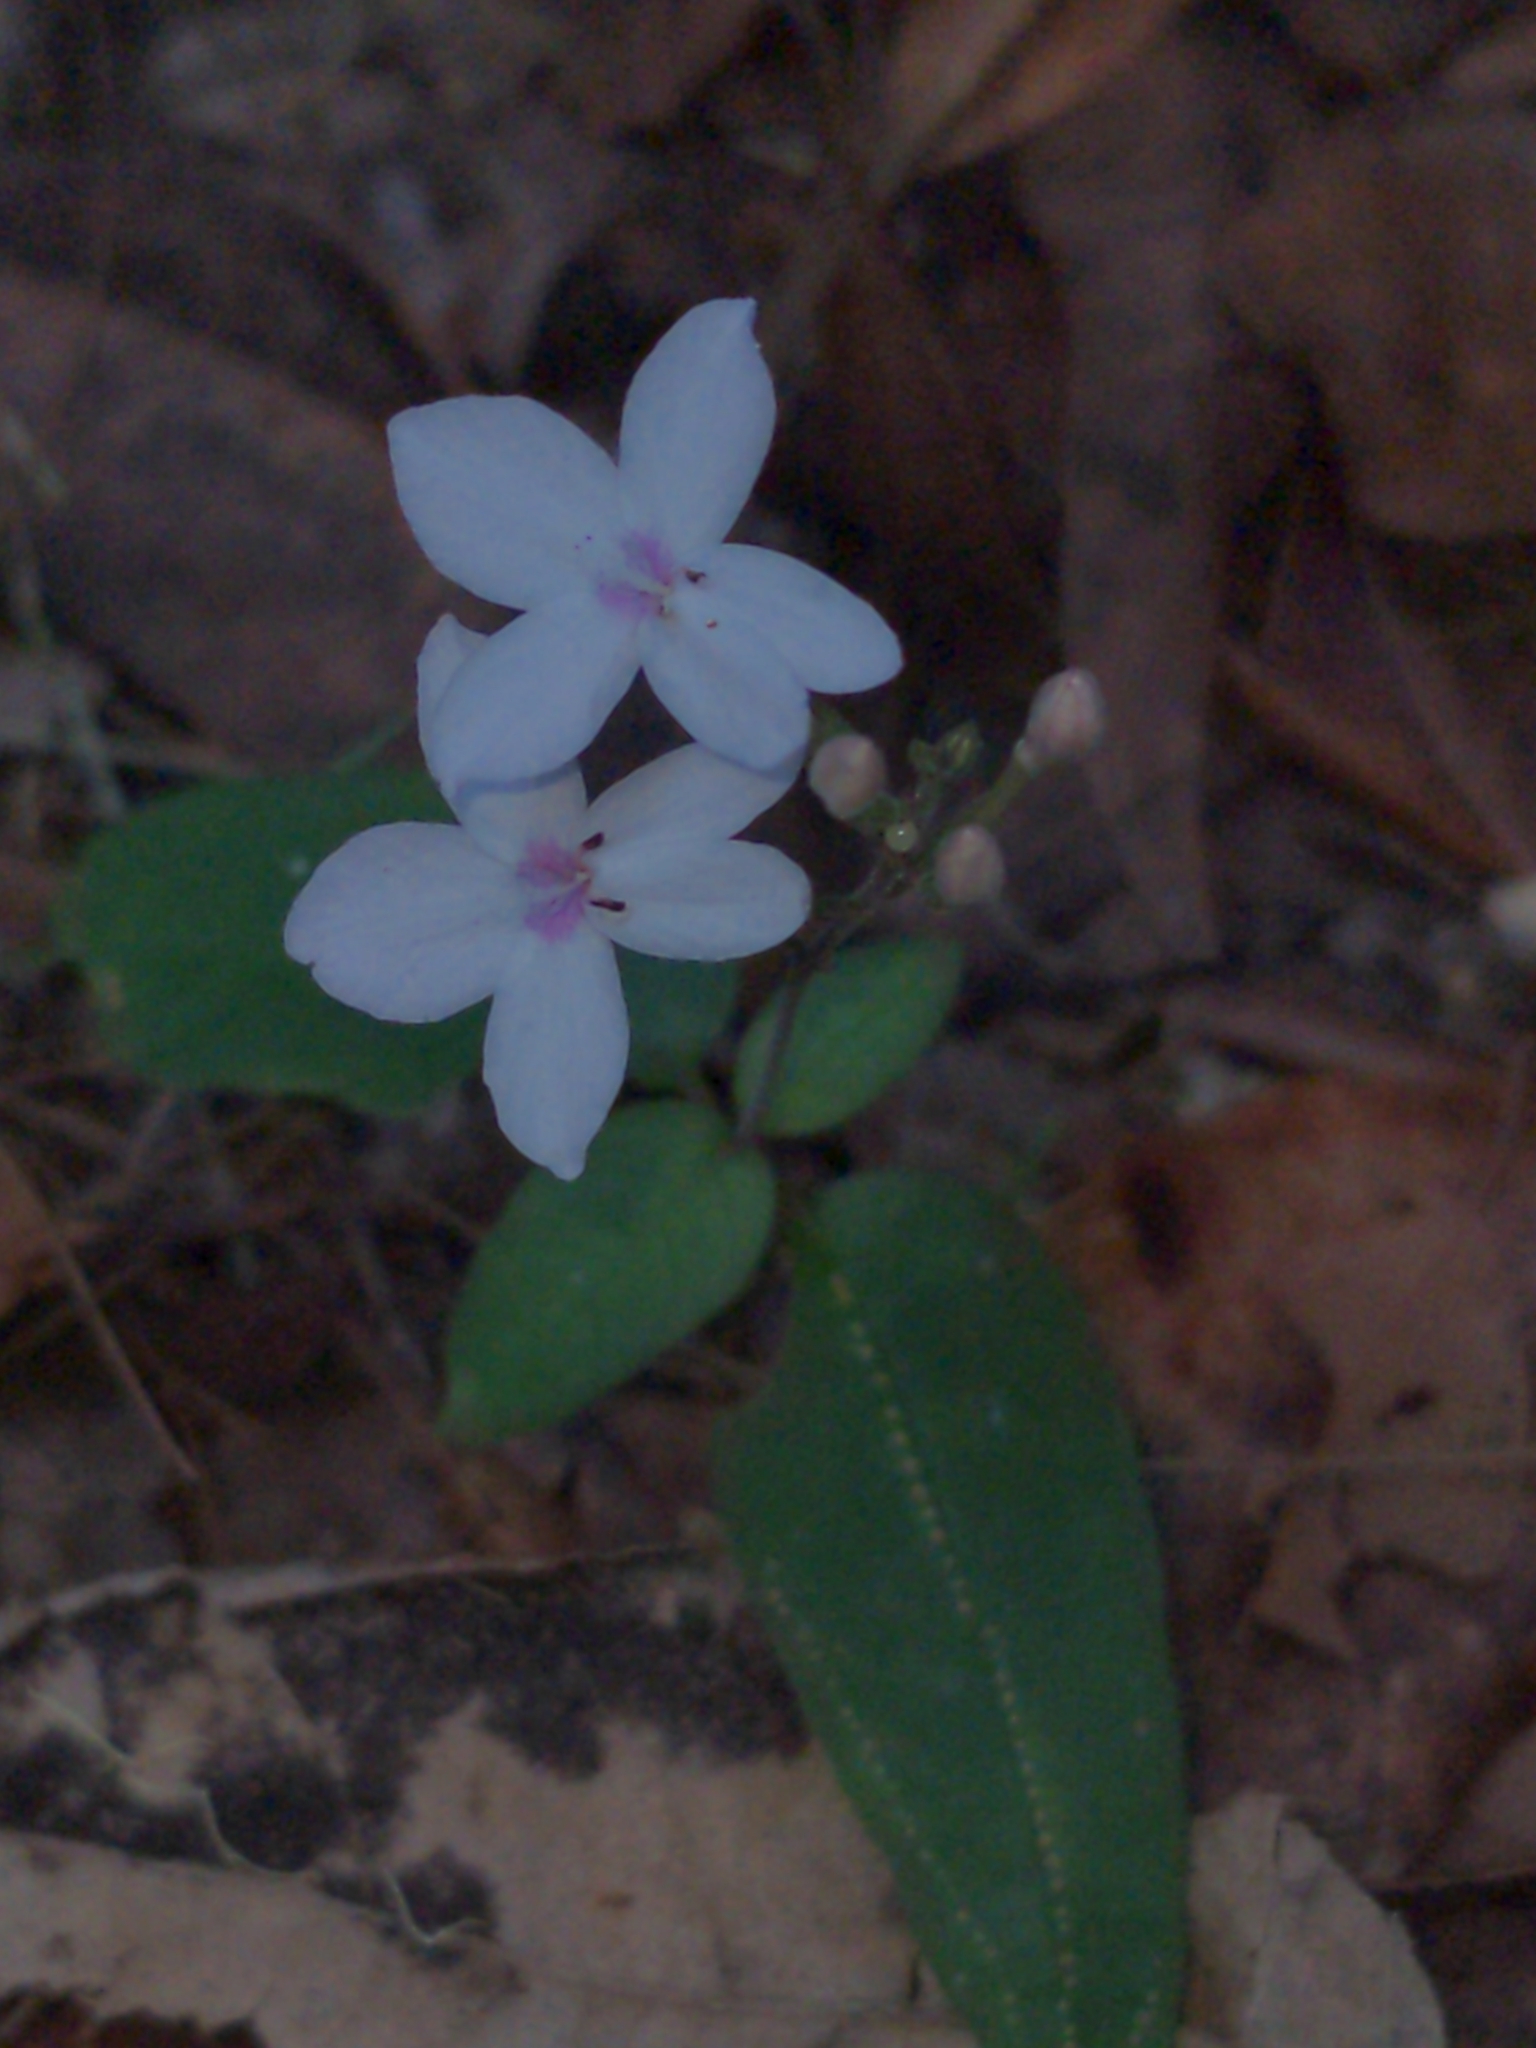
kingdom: Plantae
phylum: Tracheophyta
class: Magnoliopsida
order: Lamiales
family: Acanthaceae
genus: Pseuderanthemum
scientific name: Pseuderanthemum variabile
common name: Night and afternoon
